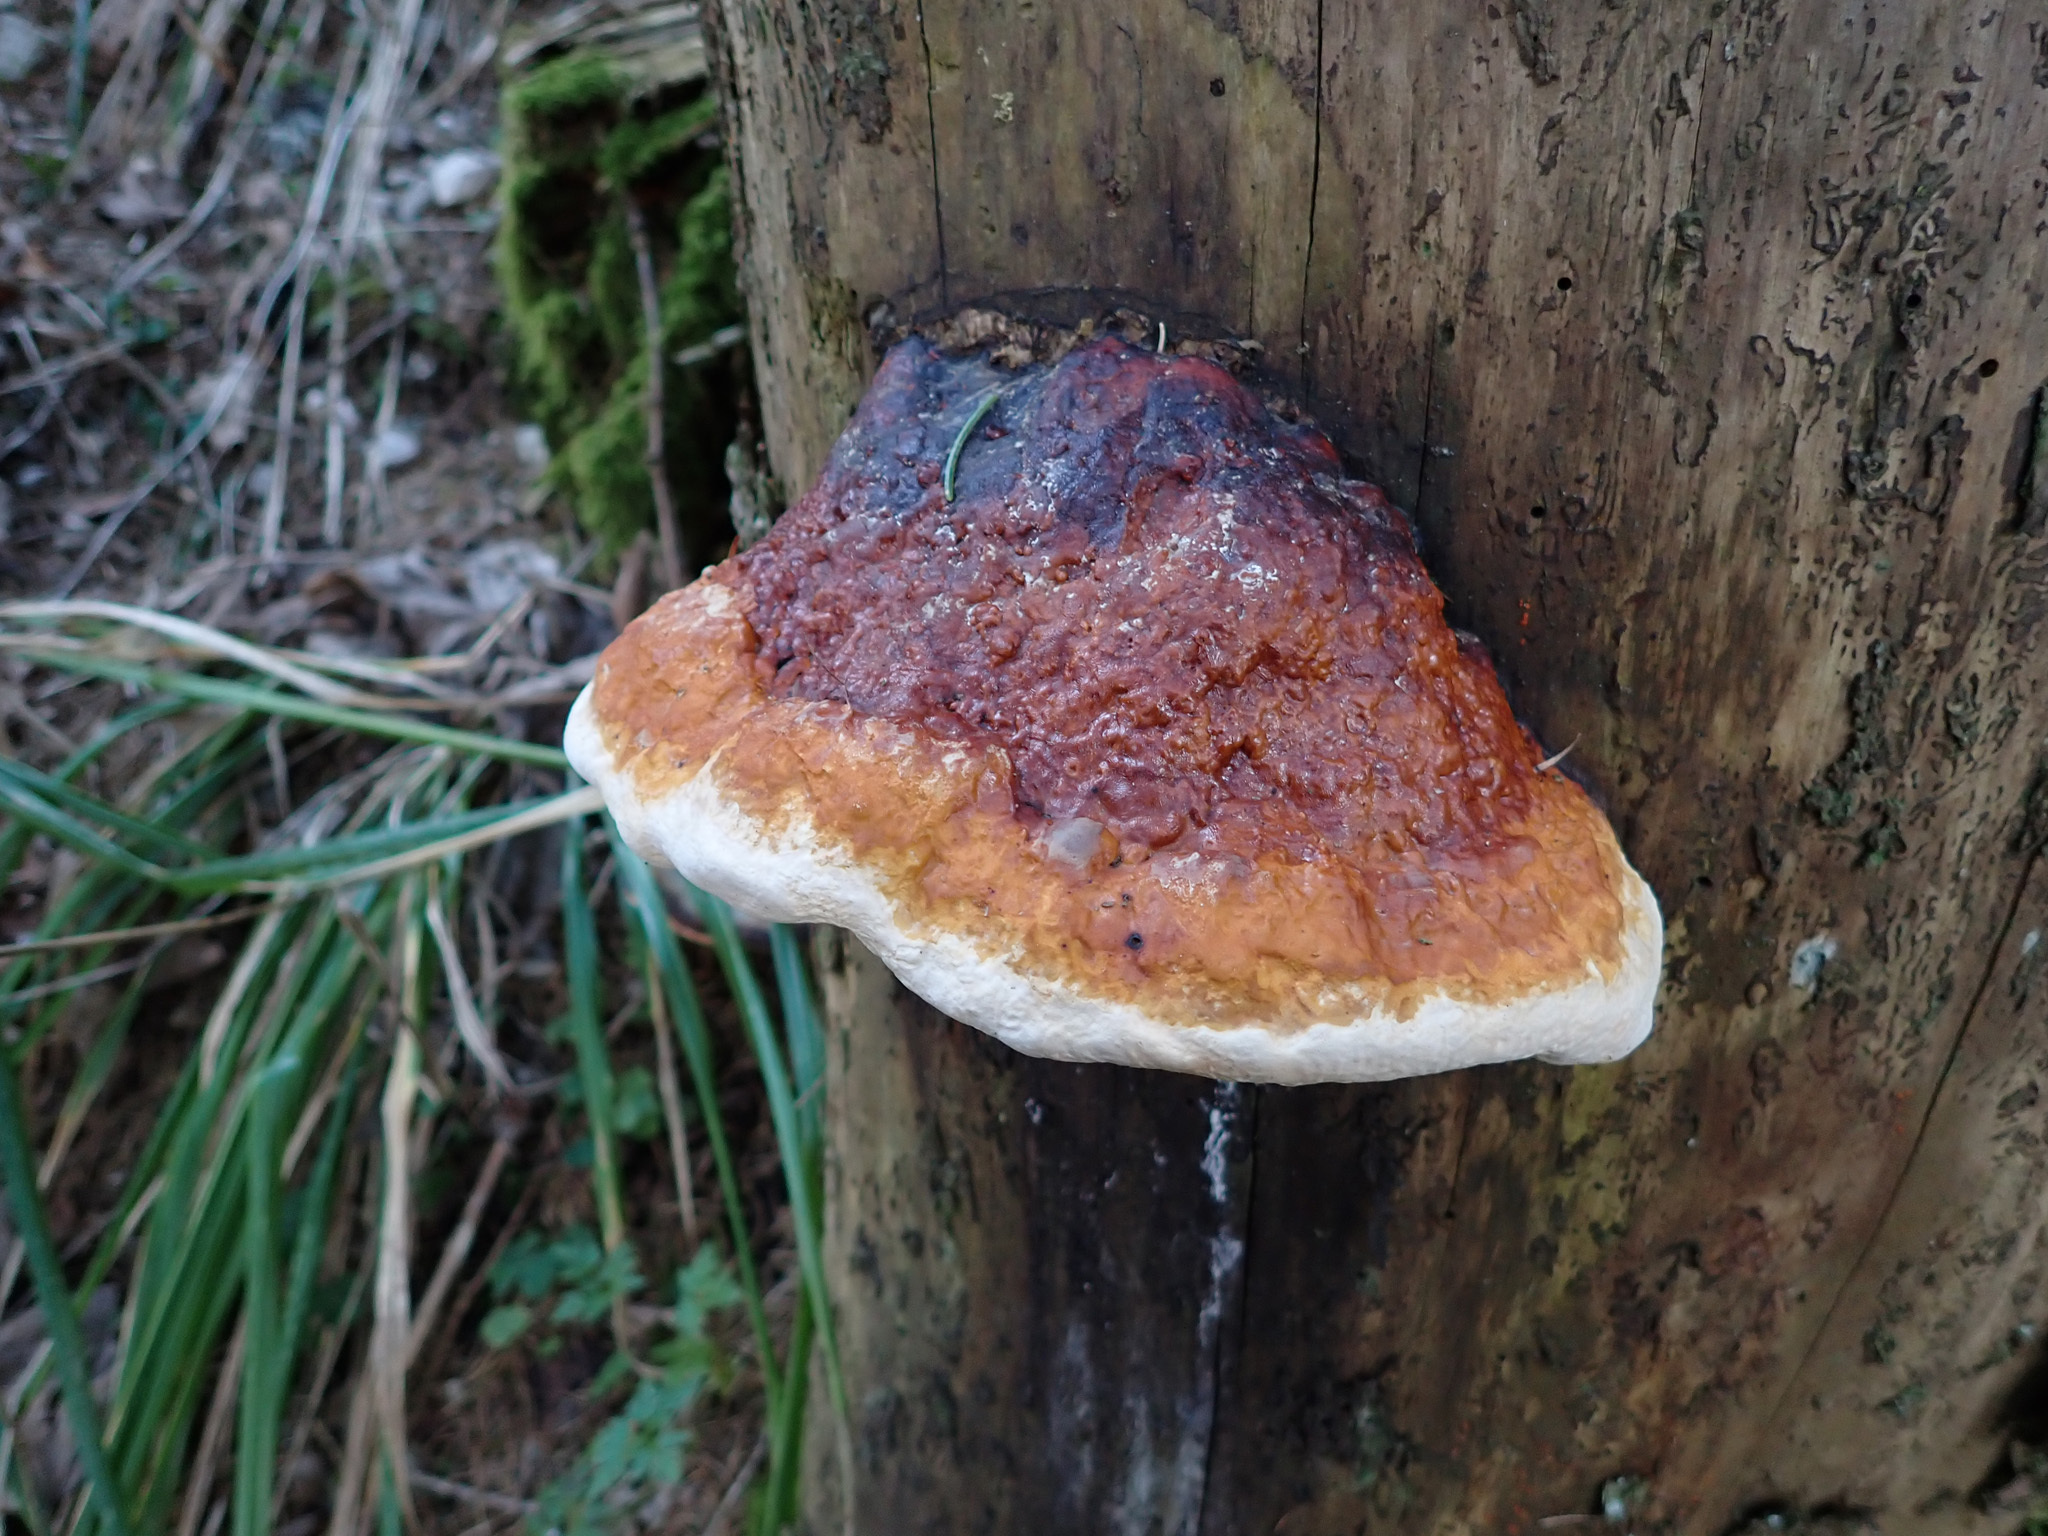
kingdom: Fungi
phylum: Basidiomycota
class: Agaricomycetes
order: Polyporales
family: Fomitopsidaceae
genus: Fomitopsis
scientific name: Fomitopsis pinicola
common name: Red-belted bracket
